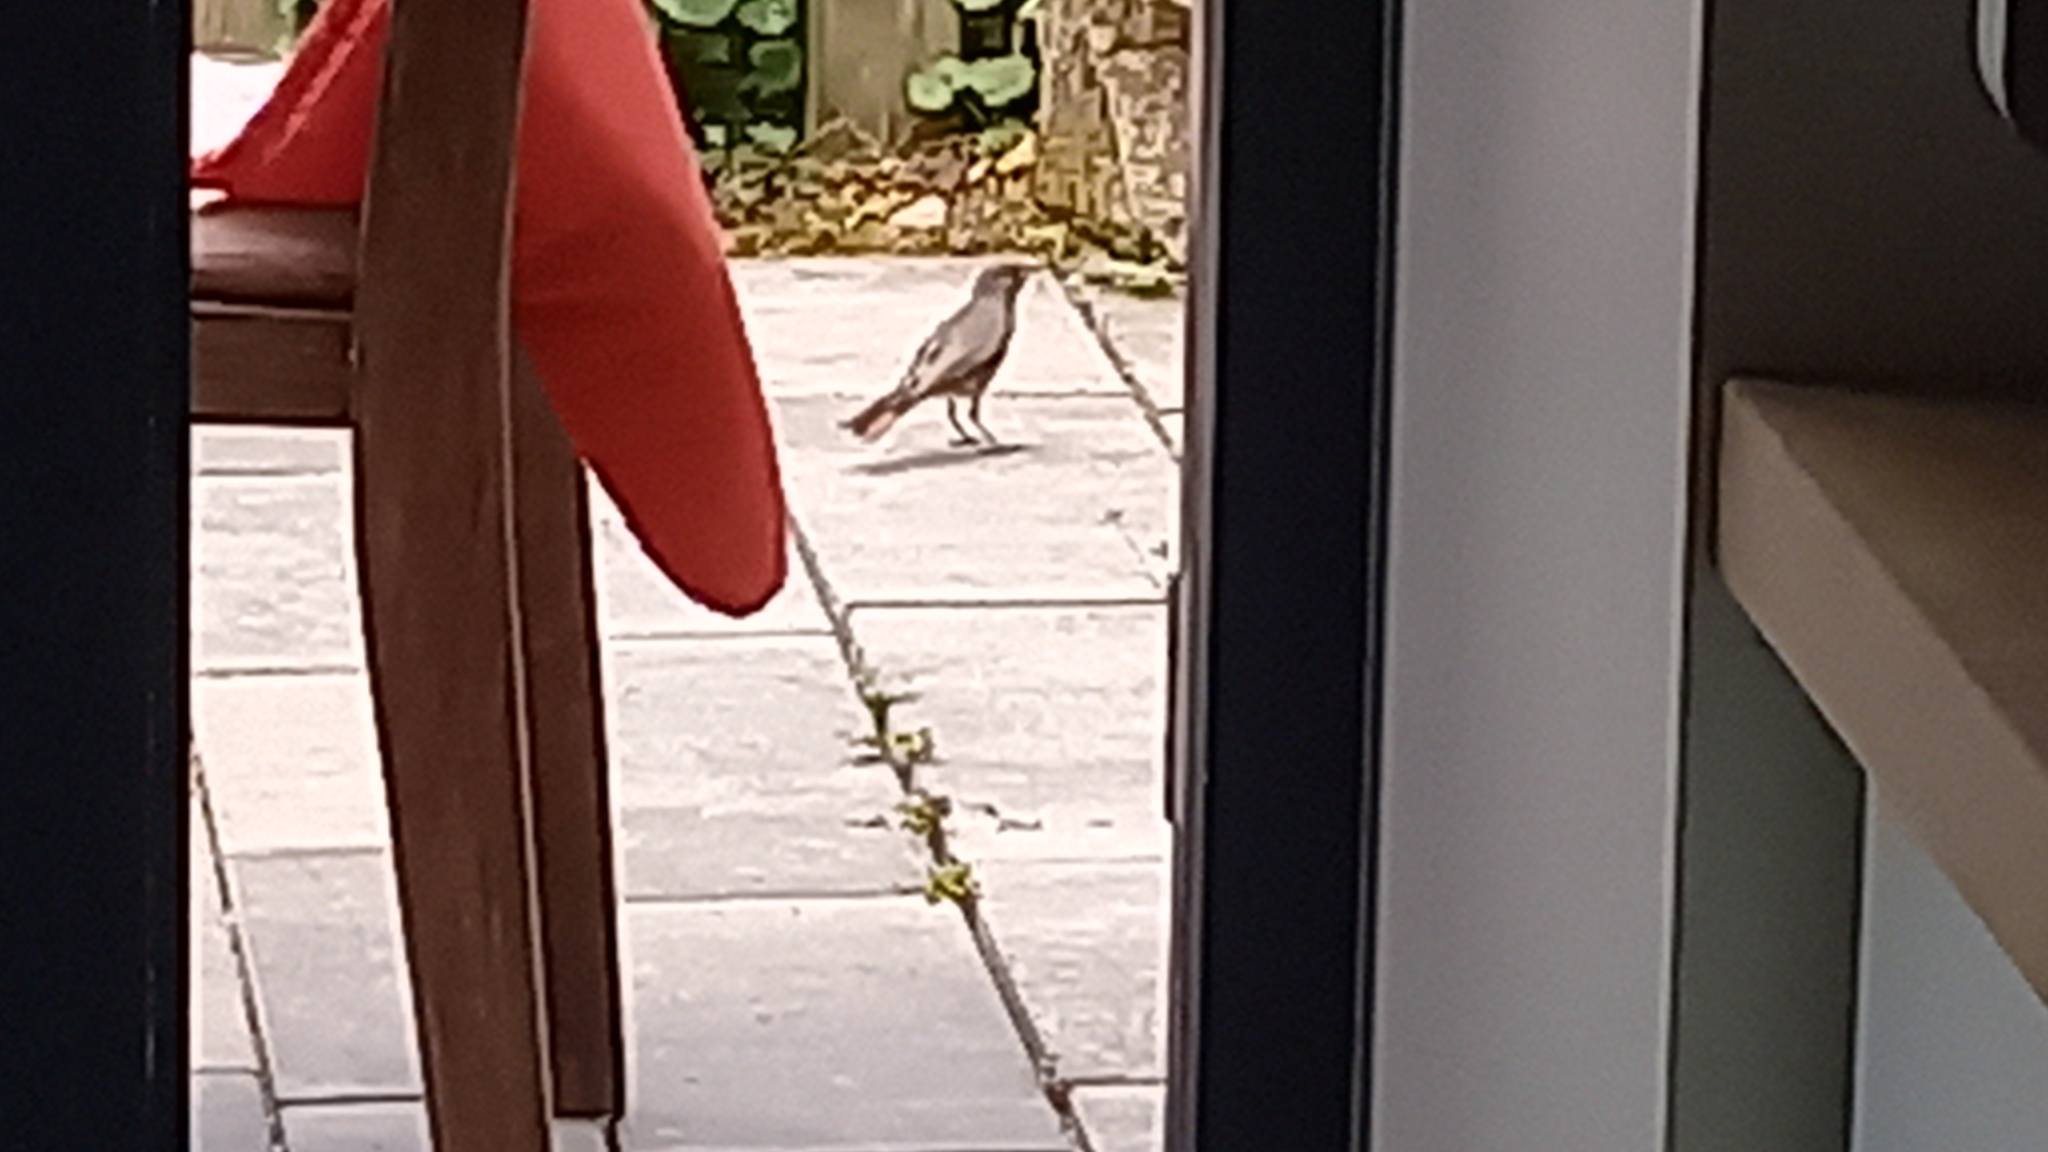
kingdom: Animalia
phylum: Chordata
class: Aves
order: Passeriformes
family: Muscicapidae
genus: Phoenicurus
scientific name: Phoenicurus ochruros
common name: Black redstart
